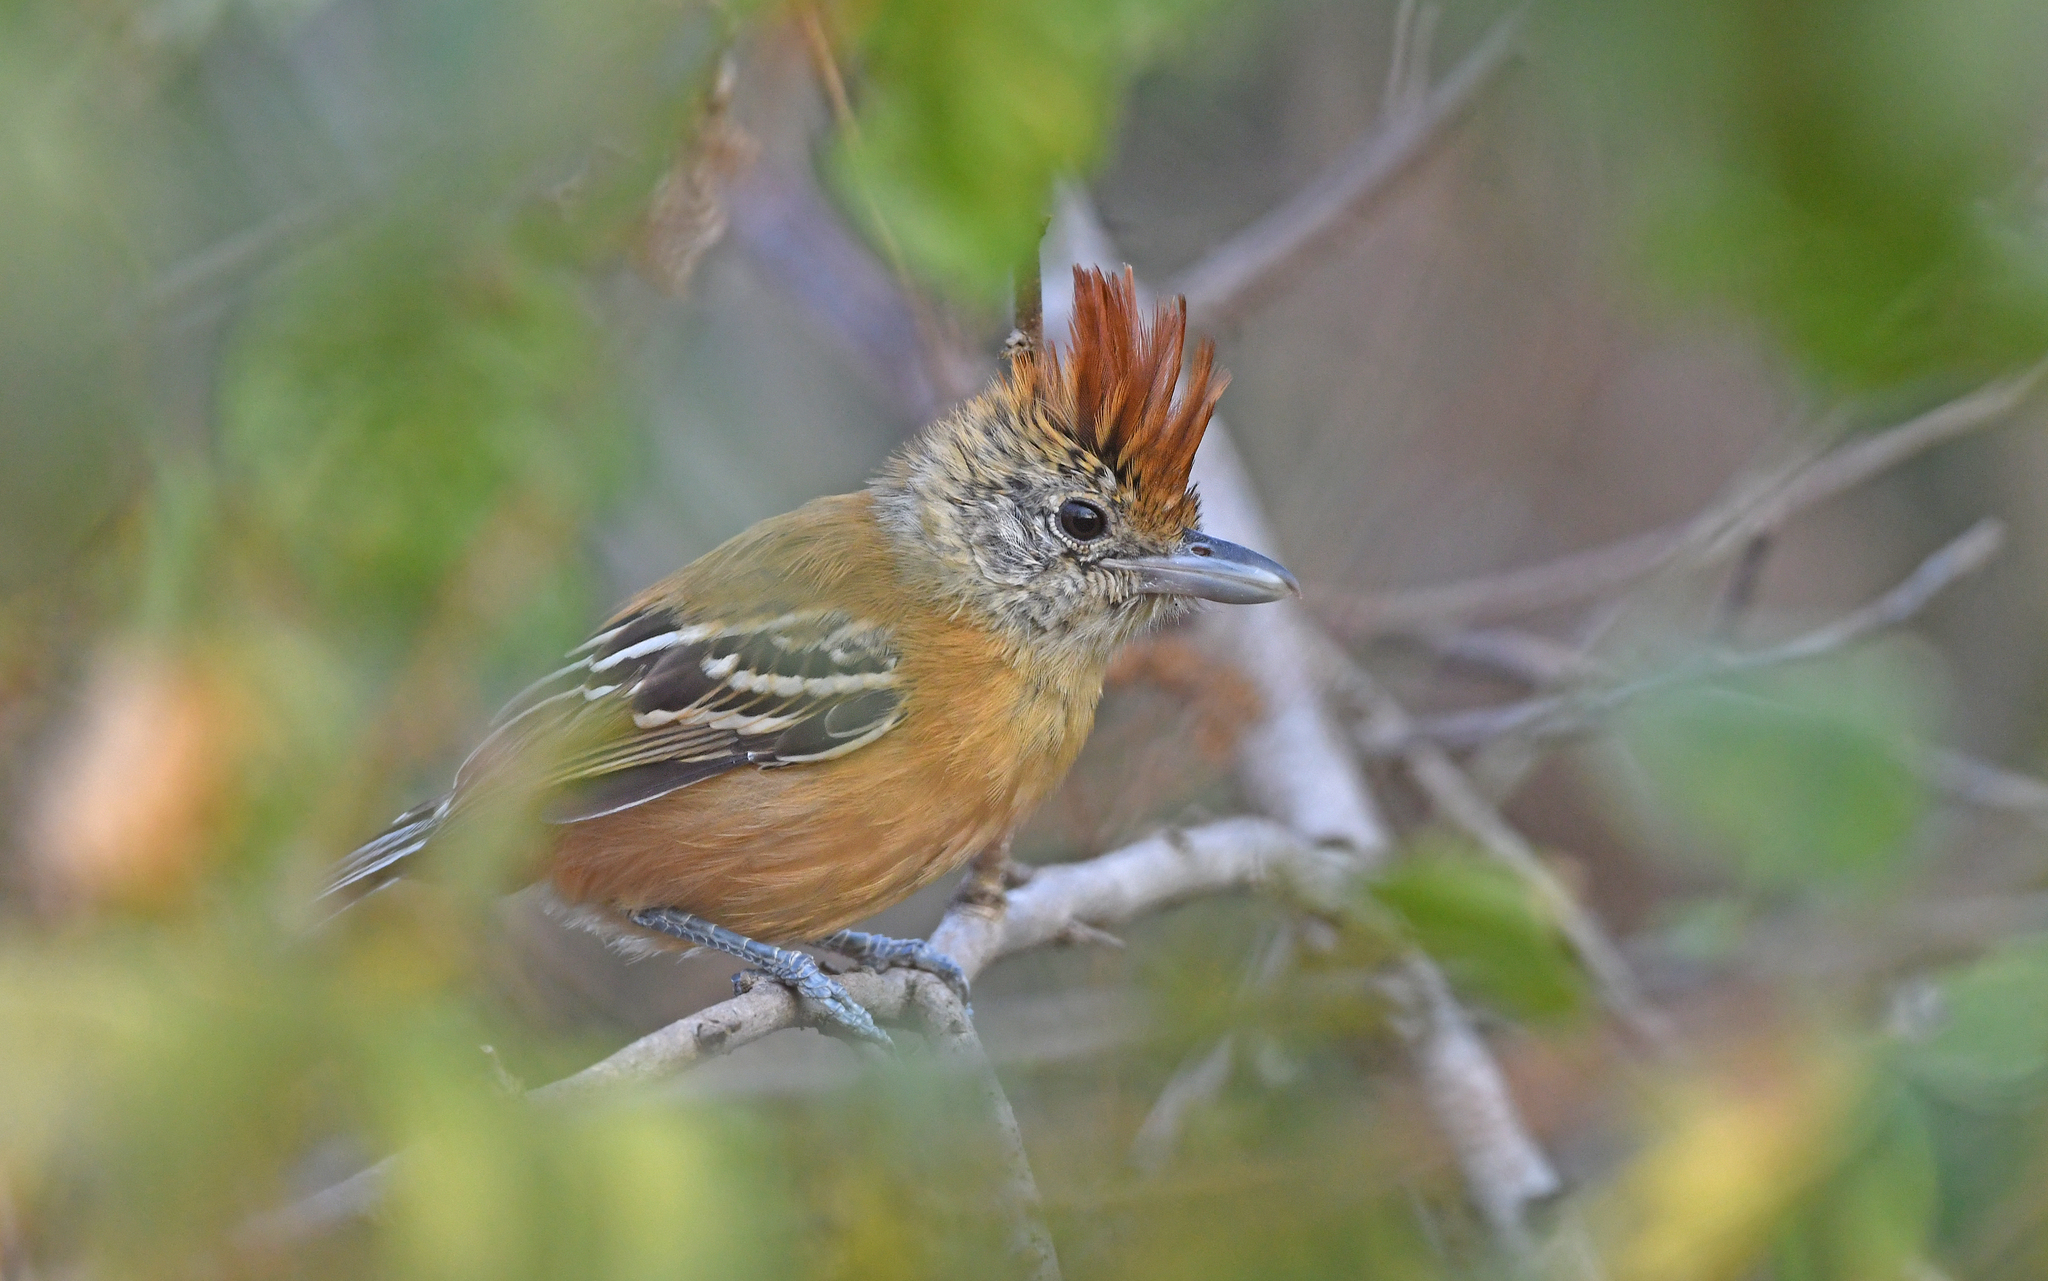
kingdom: Animalia
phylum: Chordata
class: Aves
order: Passeriformes
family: Thamnophilidae
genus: Sakesphorus
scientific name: Sakesphorus canadensis
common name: Black-crested antshrike
